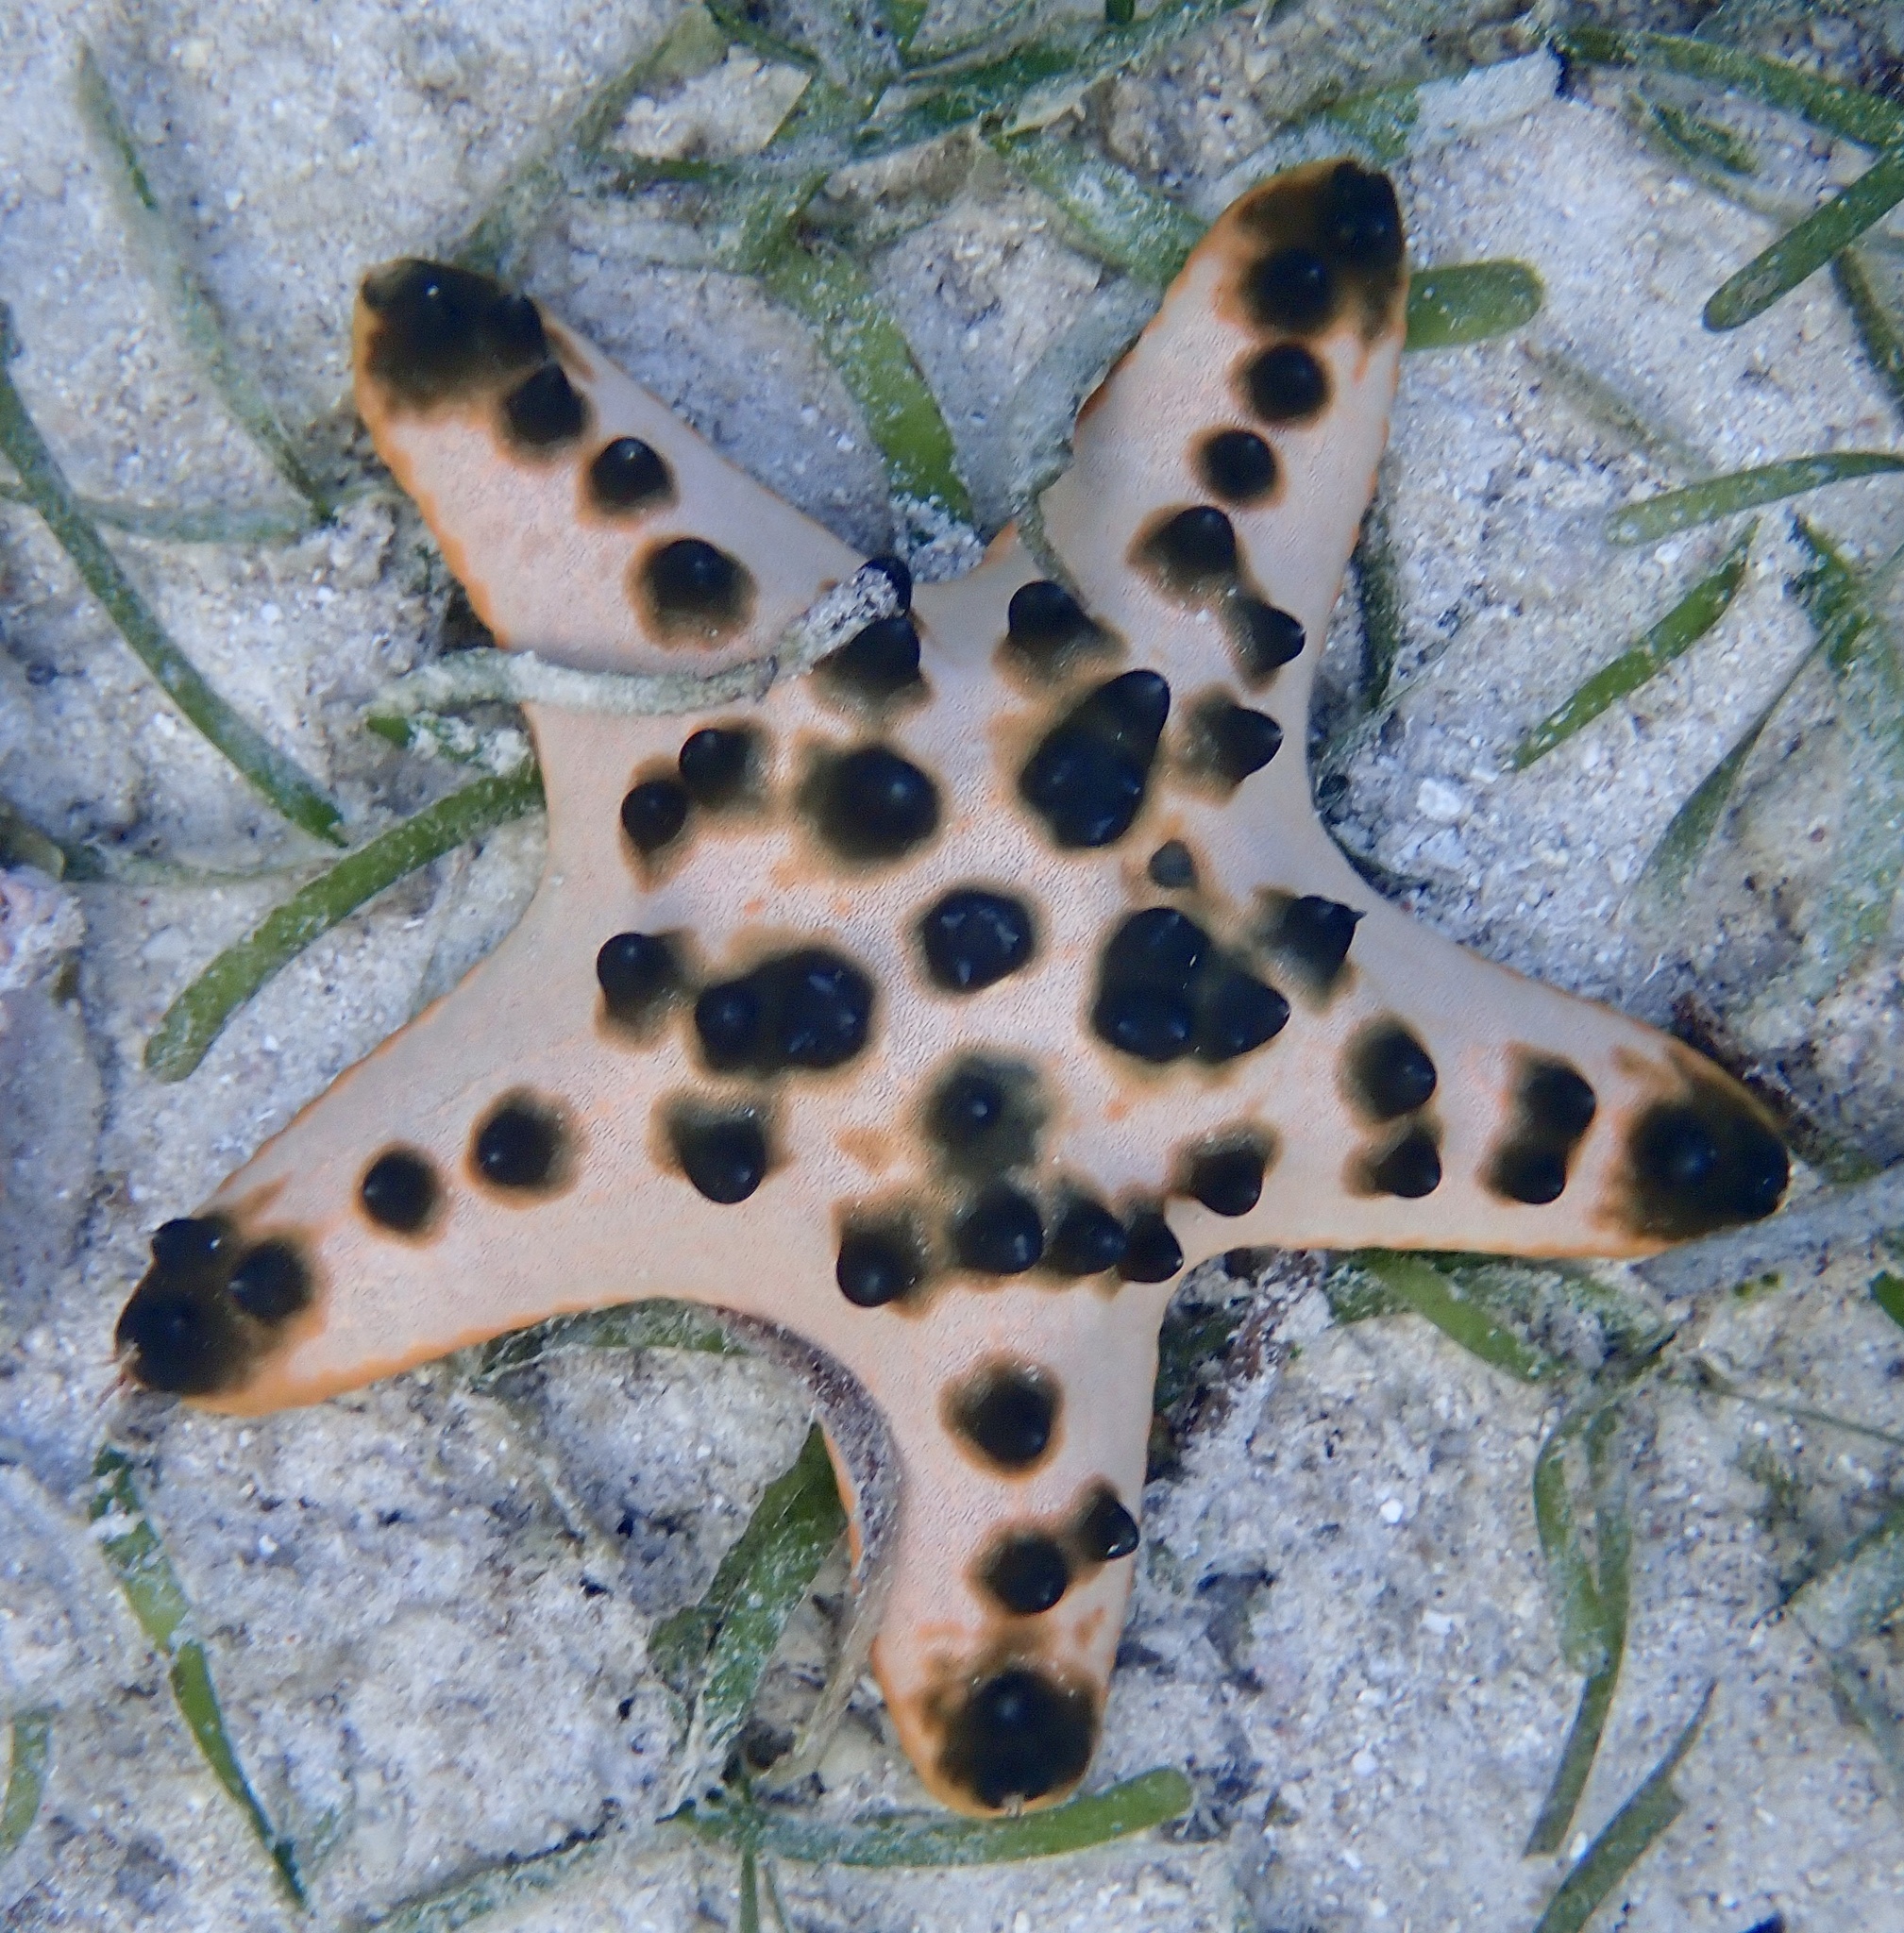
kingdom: Animalia
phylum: Echinodermata
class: Asteroidea
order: Valvatida
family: Oreasteridae
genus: Protoreaster
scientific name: Protoreaster nodosus
